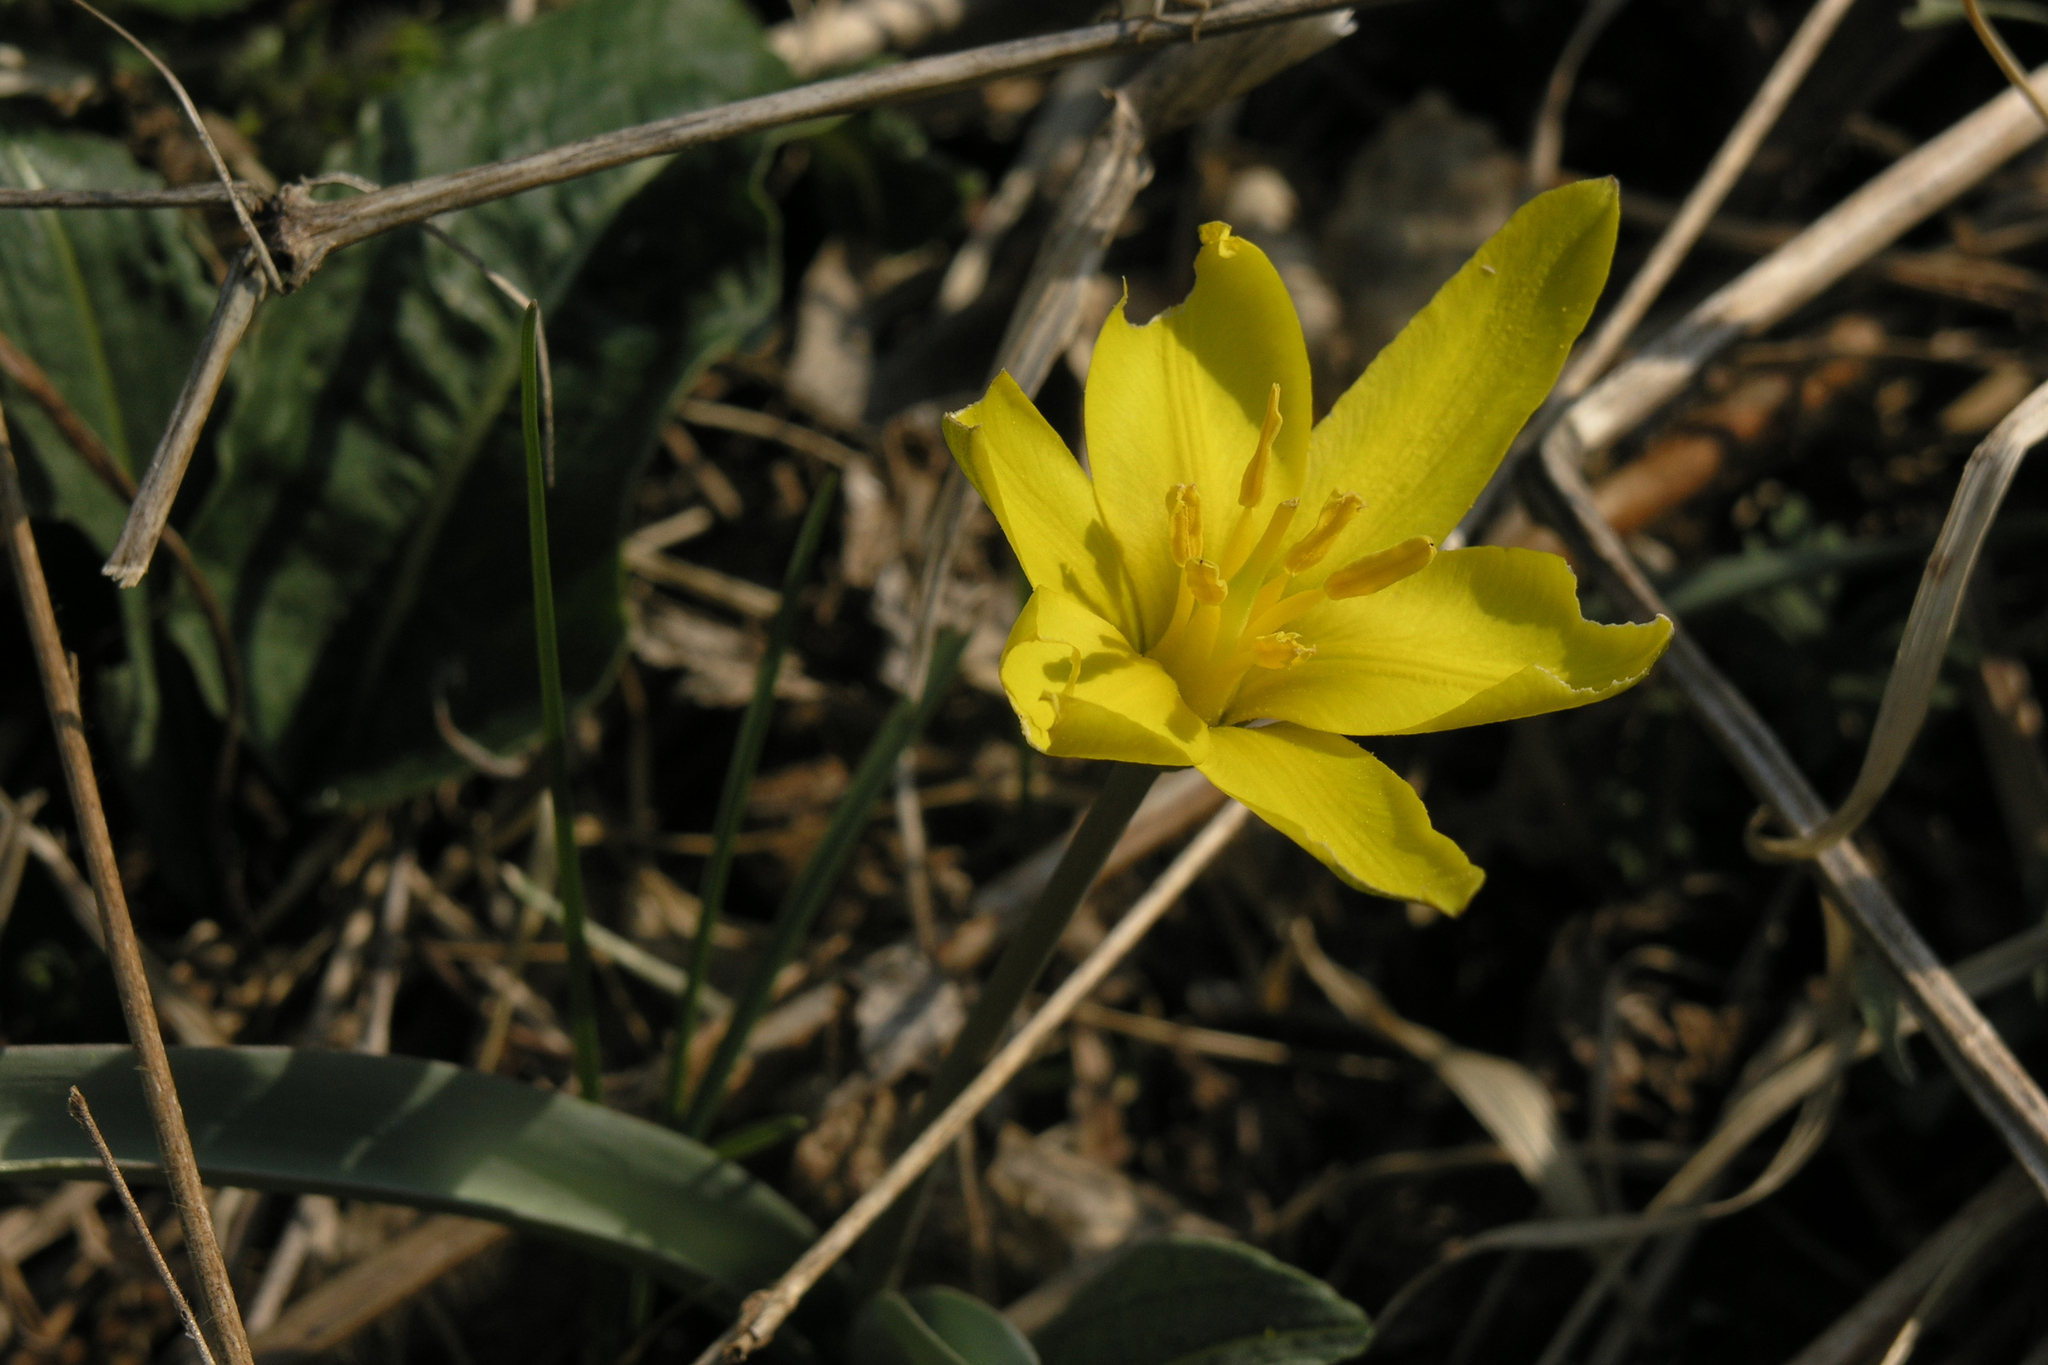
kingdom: Plantae
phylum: Tracheophyta
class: Liliopsida
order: Liliales
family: Liliaceae
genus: Tulipa
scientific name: Tulipa uniflora
